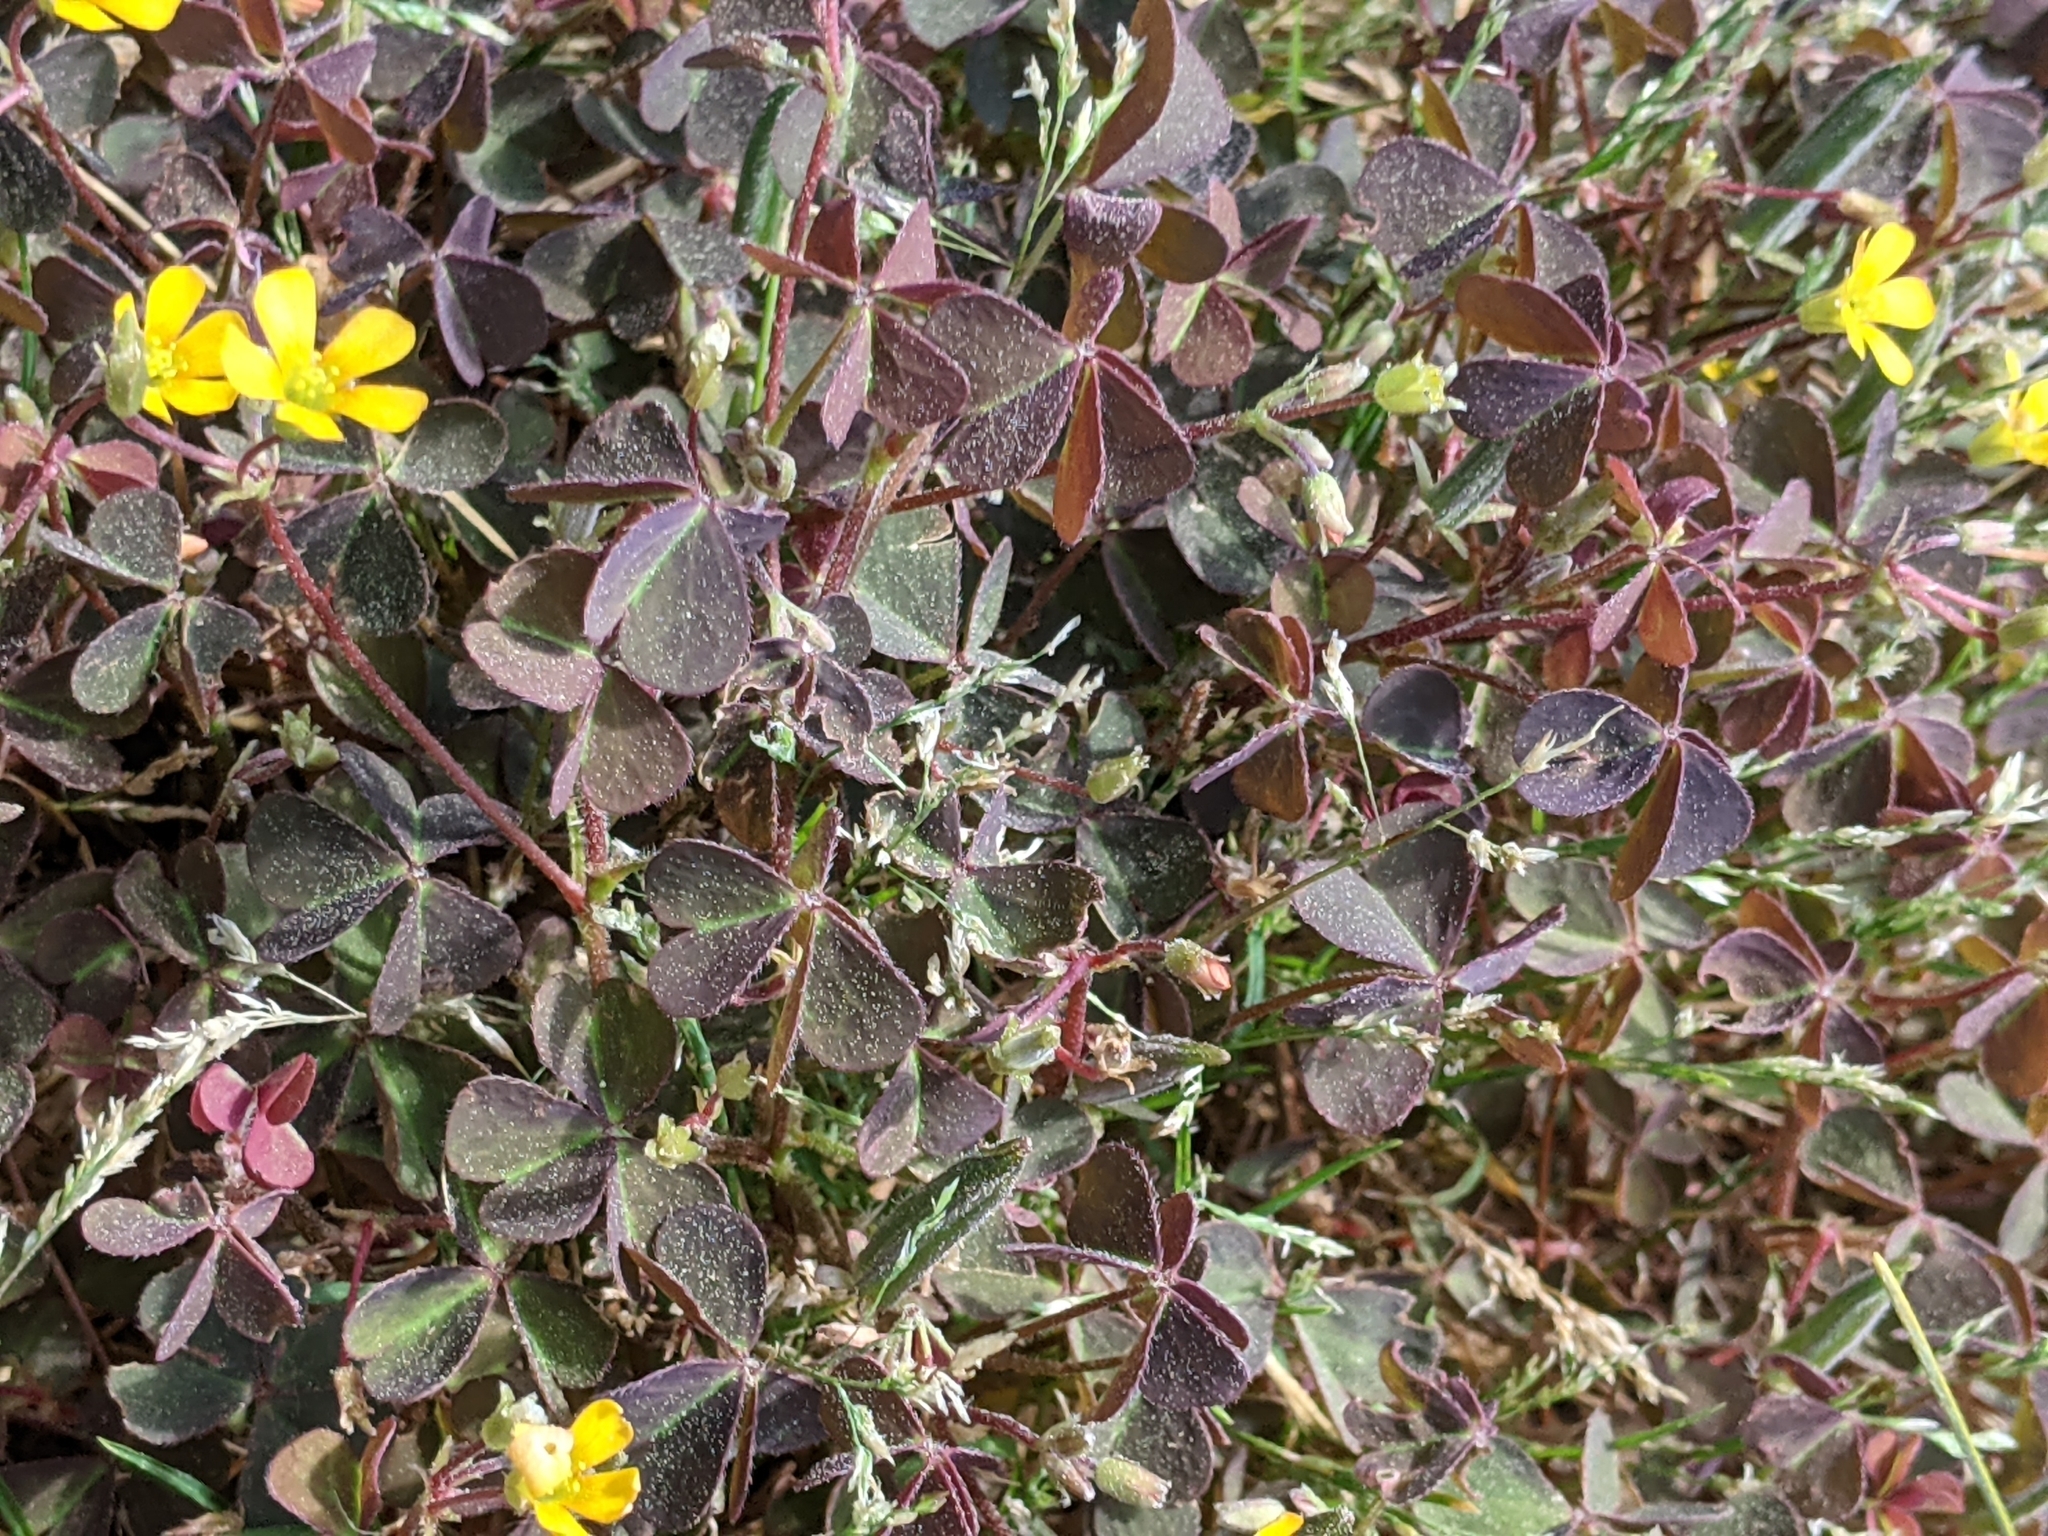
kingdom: Plantae
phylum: Tracheophyta
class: Magnoliopsida
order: Oxalidales
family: Oxalidaceae
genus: Oxalis
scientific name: Oxalis corniculata
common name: Procumbent yellow-sorrel
